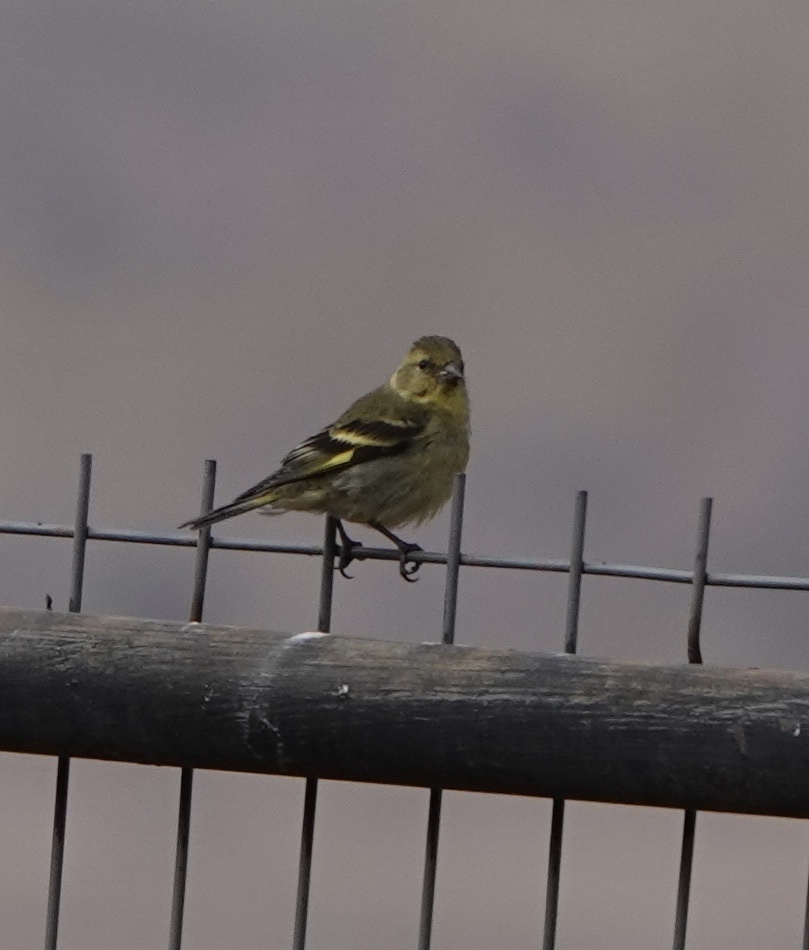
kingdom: Animalia
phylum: Chordata
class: Aves
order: Passeriformes
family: Fringillidae
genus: Spinus
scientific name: Spinus barbatus
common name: Black-chinned siskin
